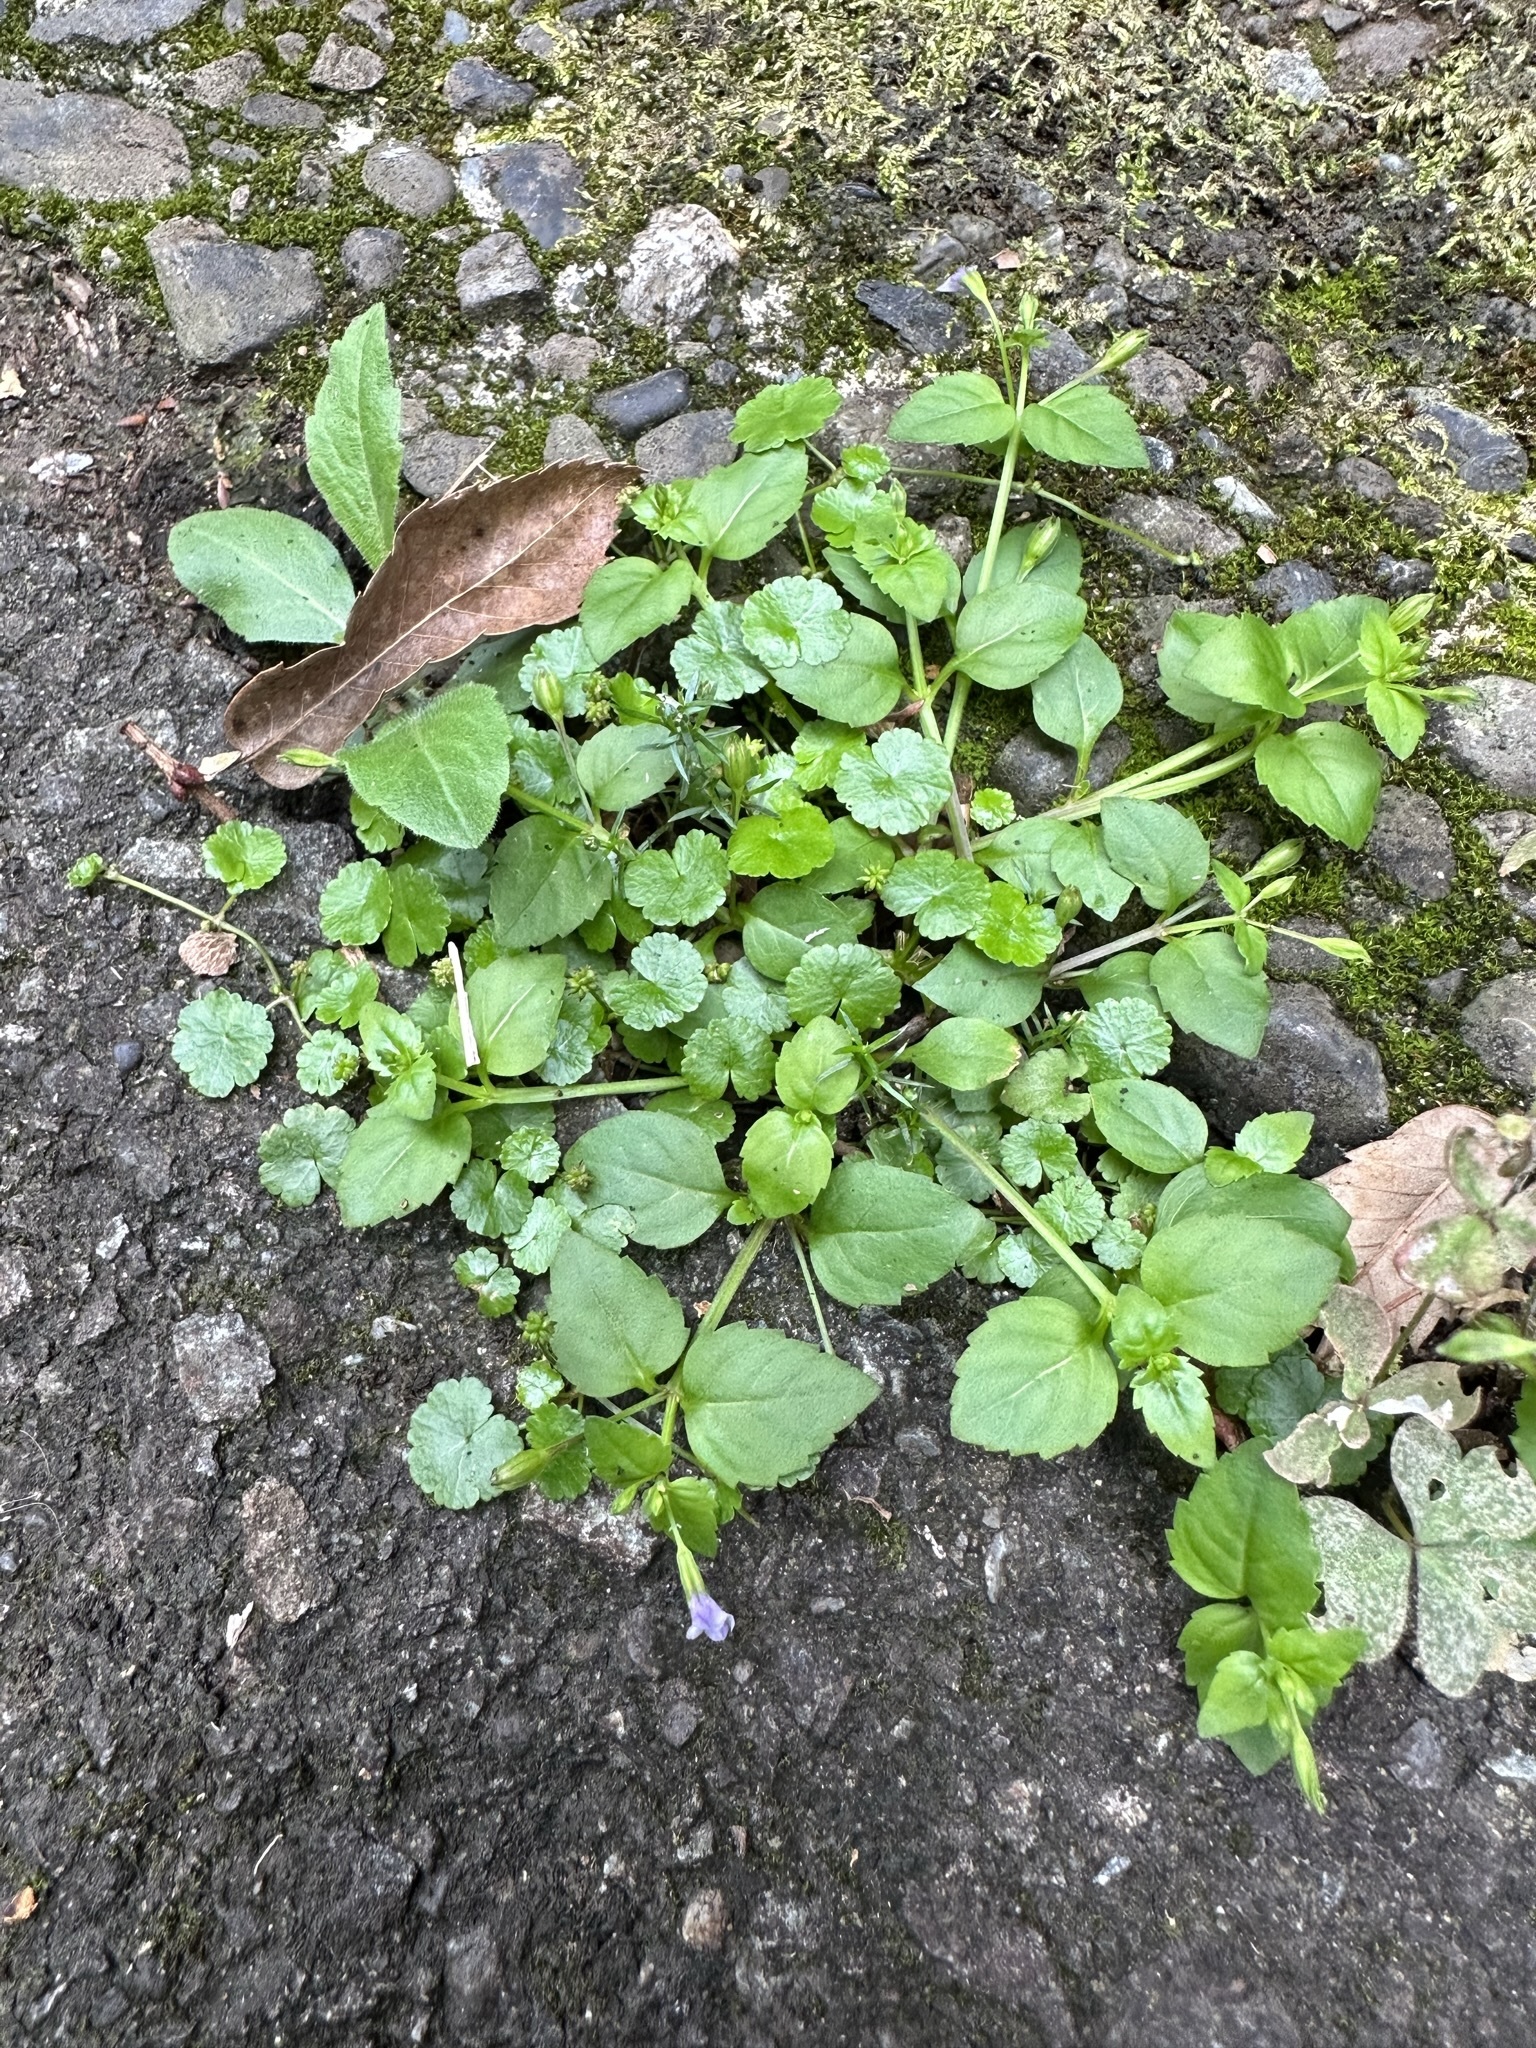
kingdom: Plantae
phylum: Tracheophyta
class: Magnoliopsida
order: Lamiales
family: Linderniaceae
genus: Torenia
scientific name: Torenia crustacea
